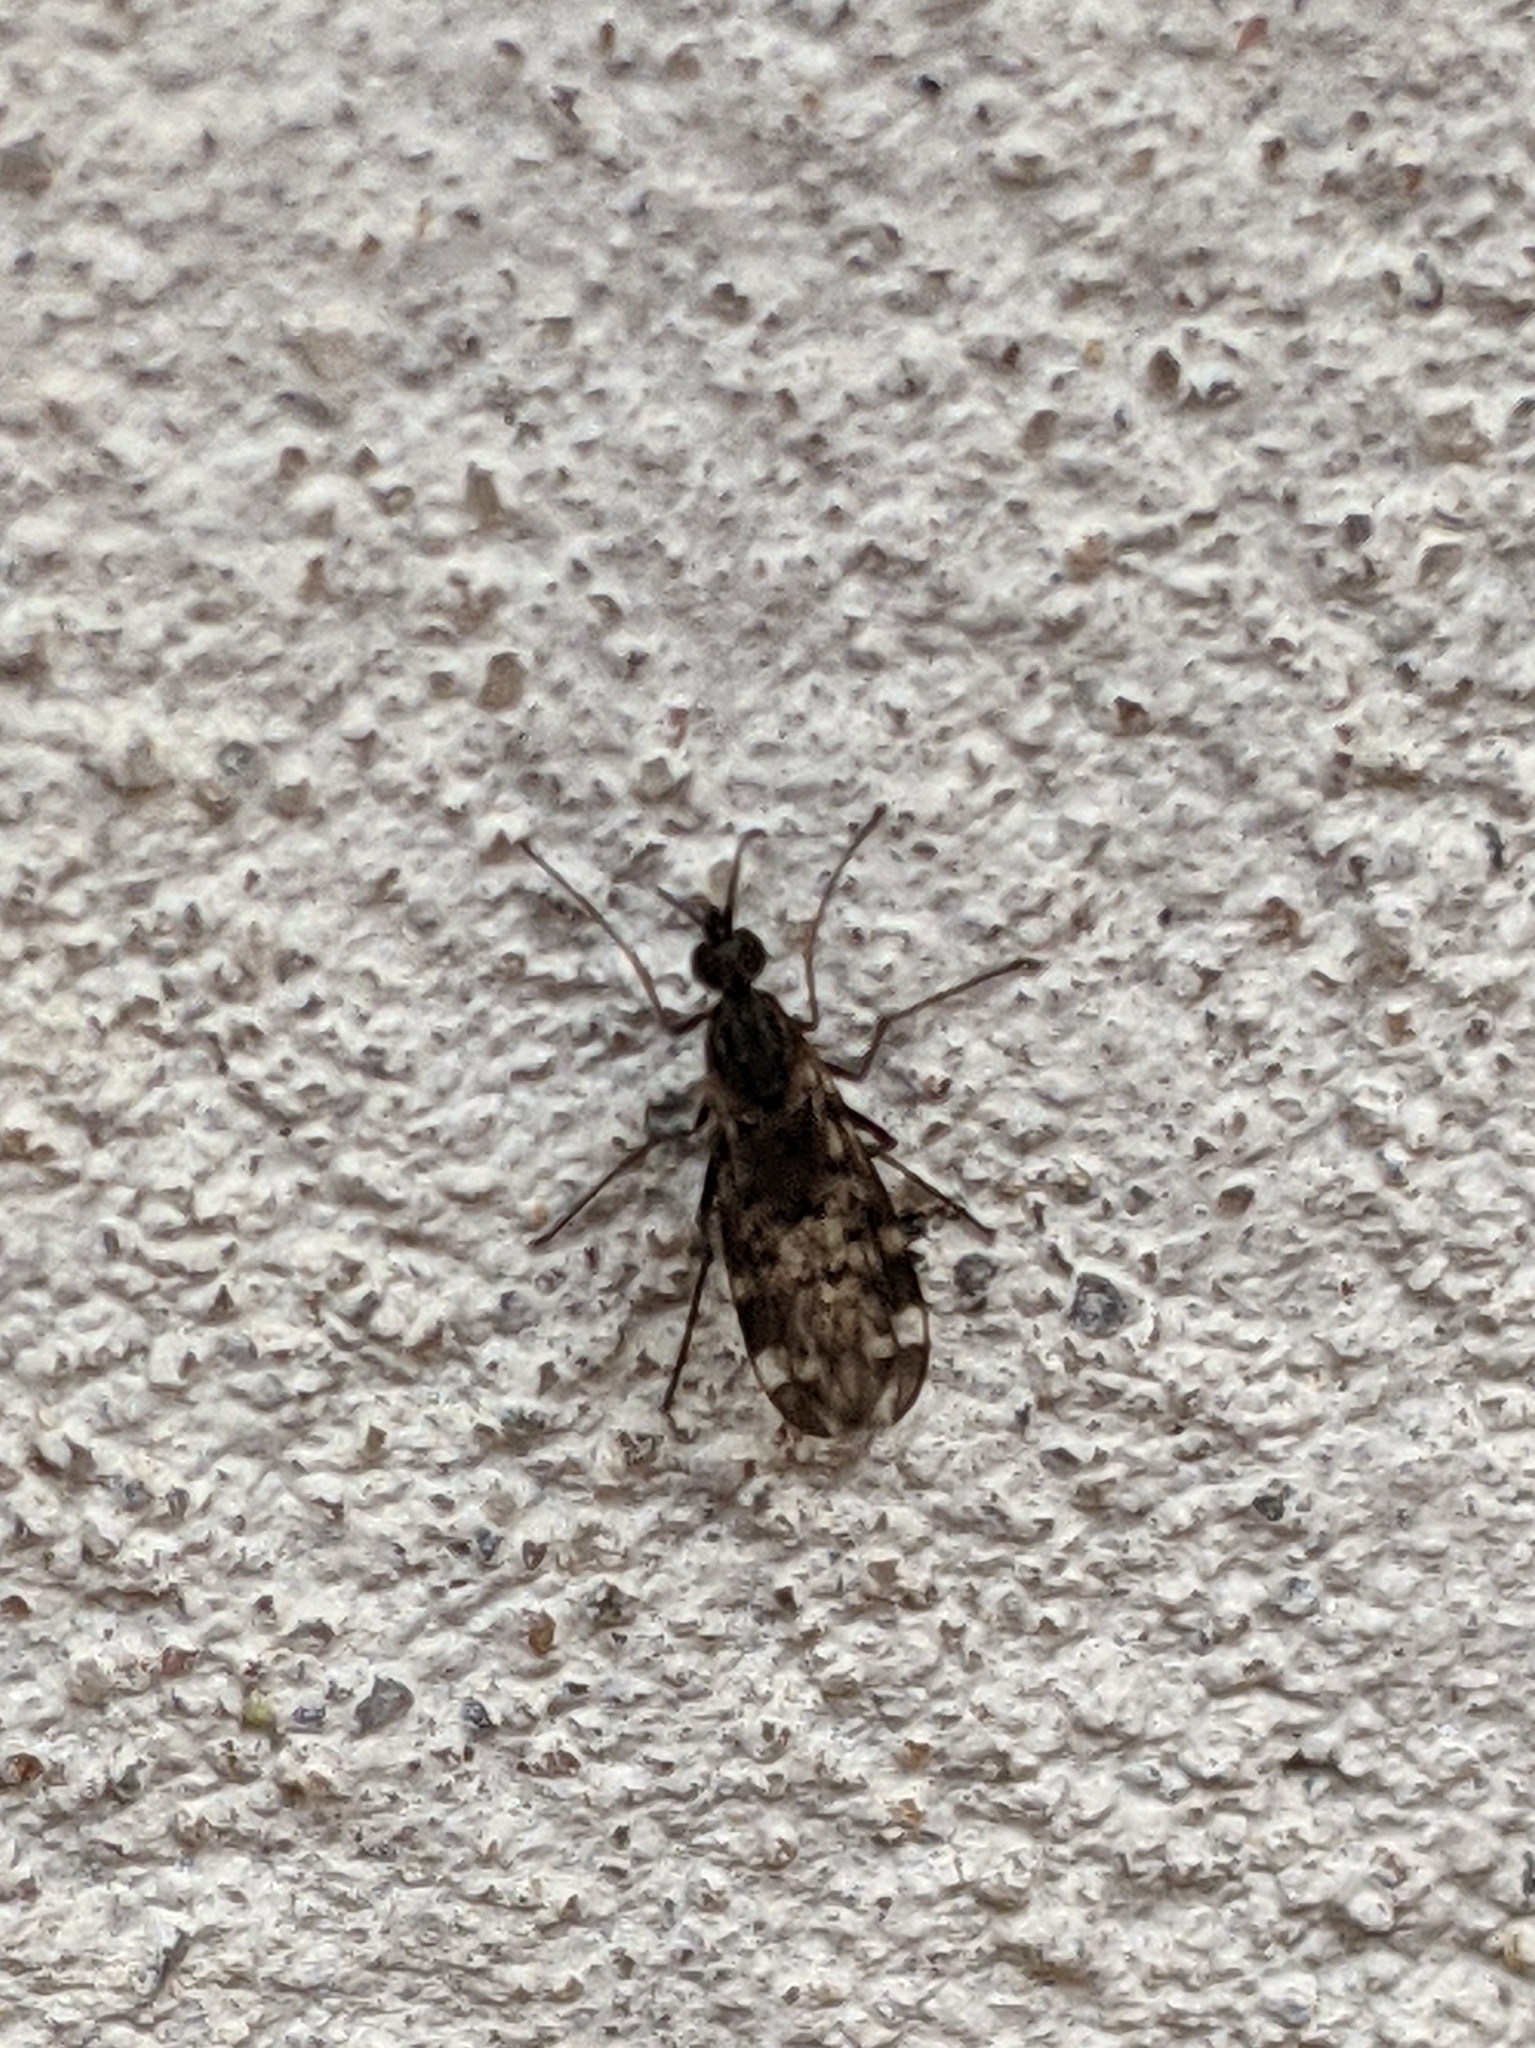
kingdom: Animalia
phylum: Arthropoda
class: Insecta
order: Diptera
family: Anisopodidae
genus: Sylvicola
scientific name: Sylvicola alternata
